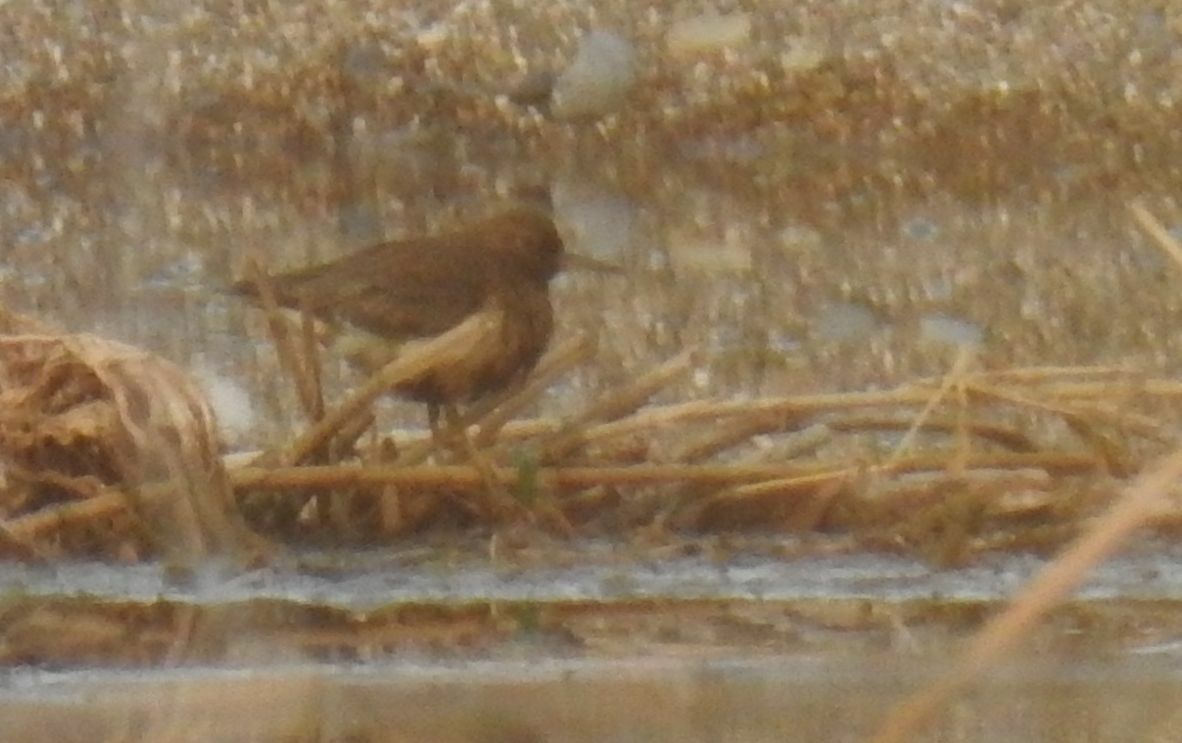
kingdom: Animalia
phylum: Chordata
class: Aves
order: Charadriiformes
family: Scolopacidae
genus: Actitis
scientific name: Actitis hypoleucos
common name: Common sandpiper
